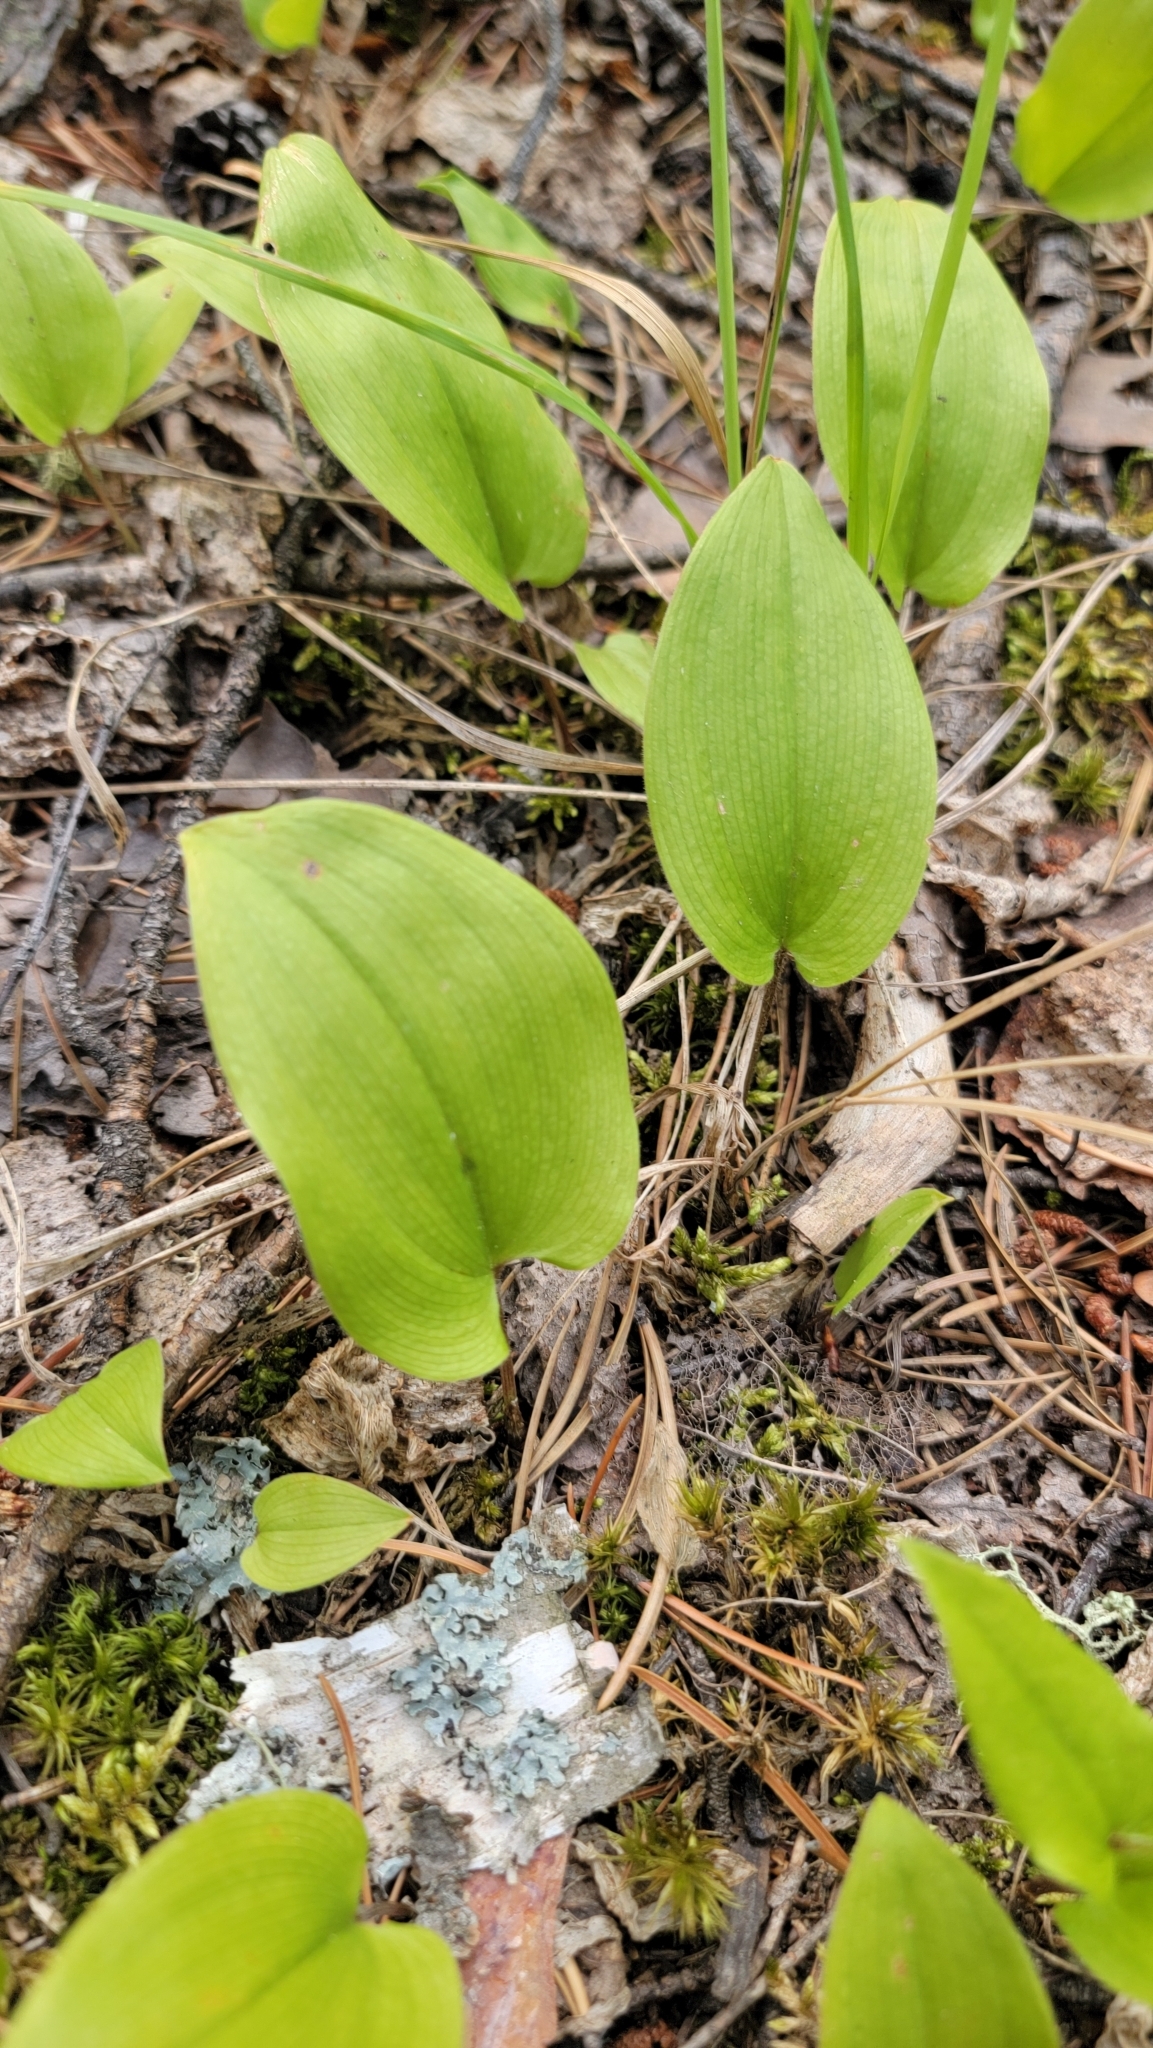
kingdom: Plantae
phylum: Tracheophyta
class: Liliopsida
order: Asparagales
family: Asparagaceae
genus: Maianthemum
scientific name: Maianthemum canadense
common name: False lily-of-the-valley
